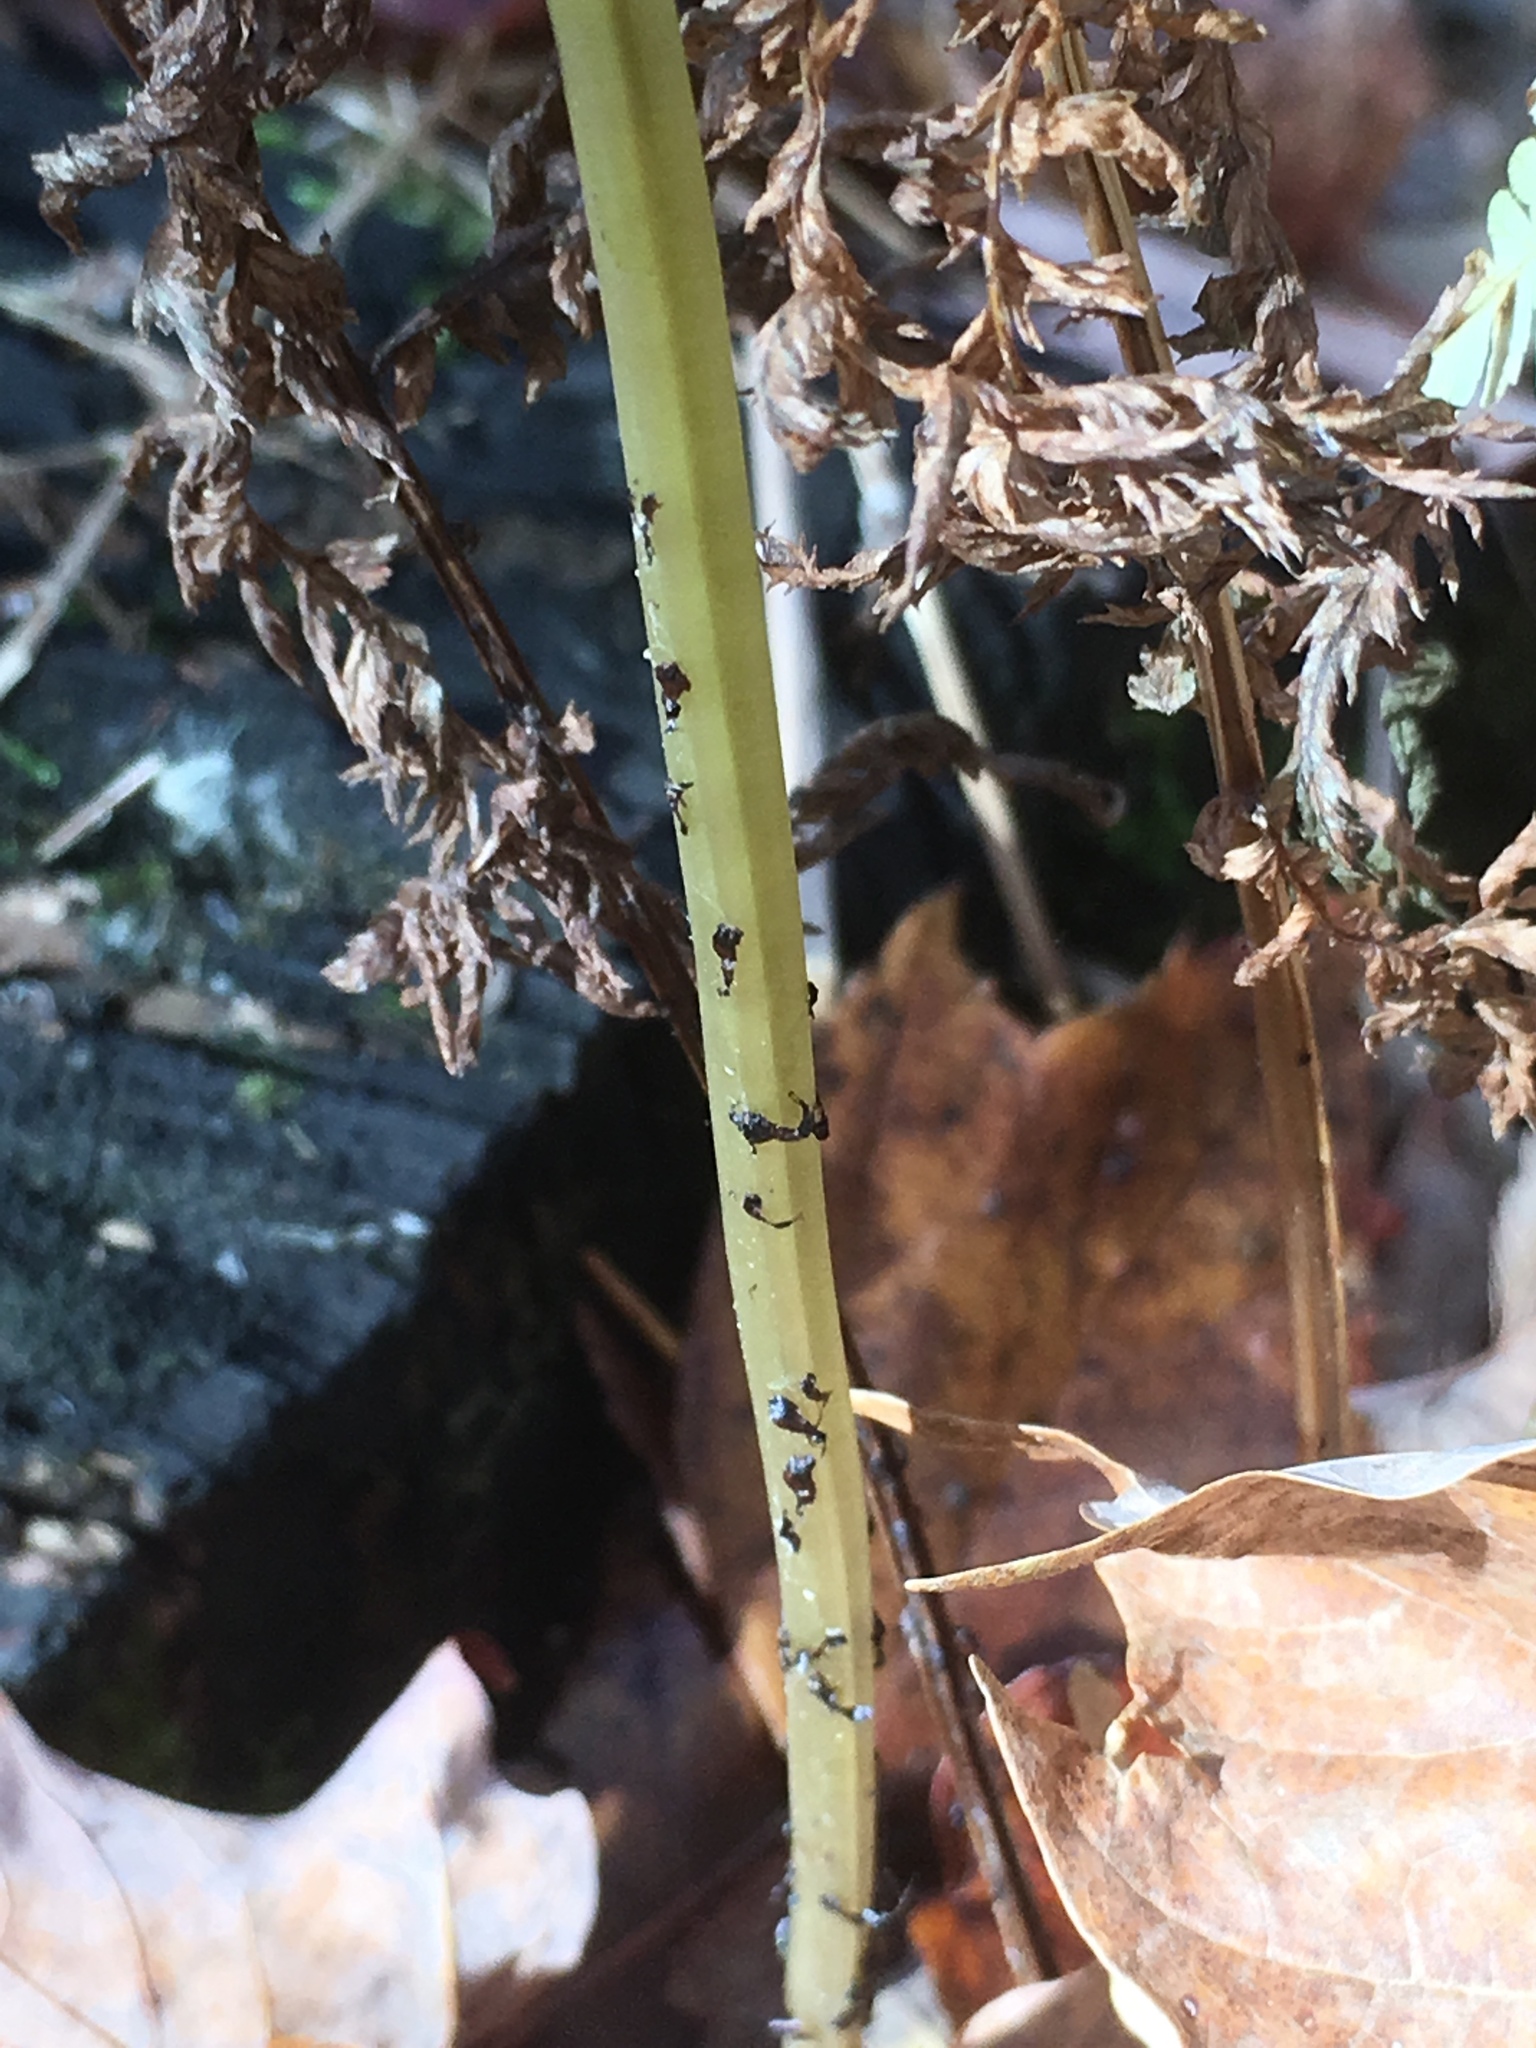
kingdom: Plantae
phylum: Tracheophyta
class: Polypodiopsida
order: Polypodiales
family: Athyriaceae
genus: Athyrium
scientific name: Athyrium angustum
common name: Northern lady fern
